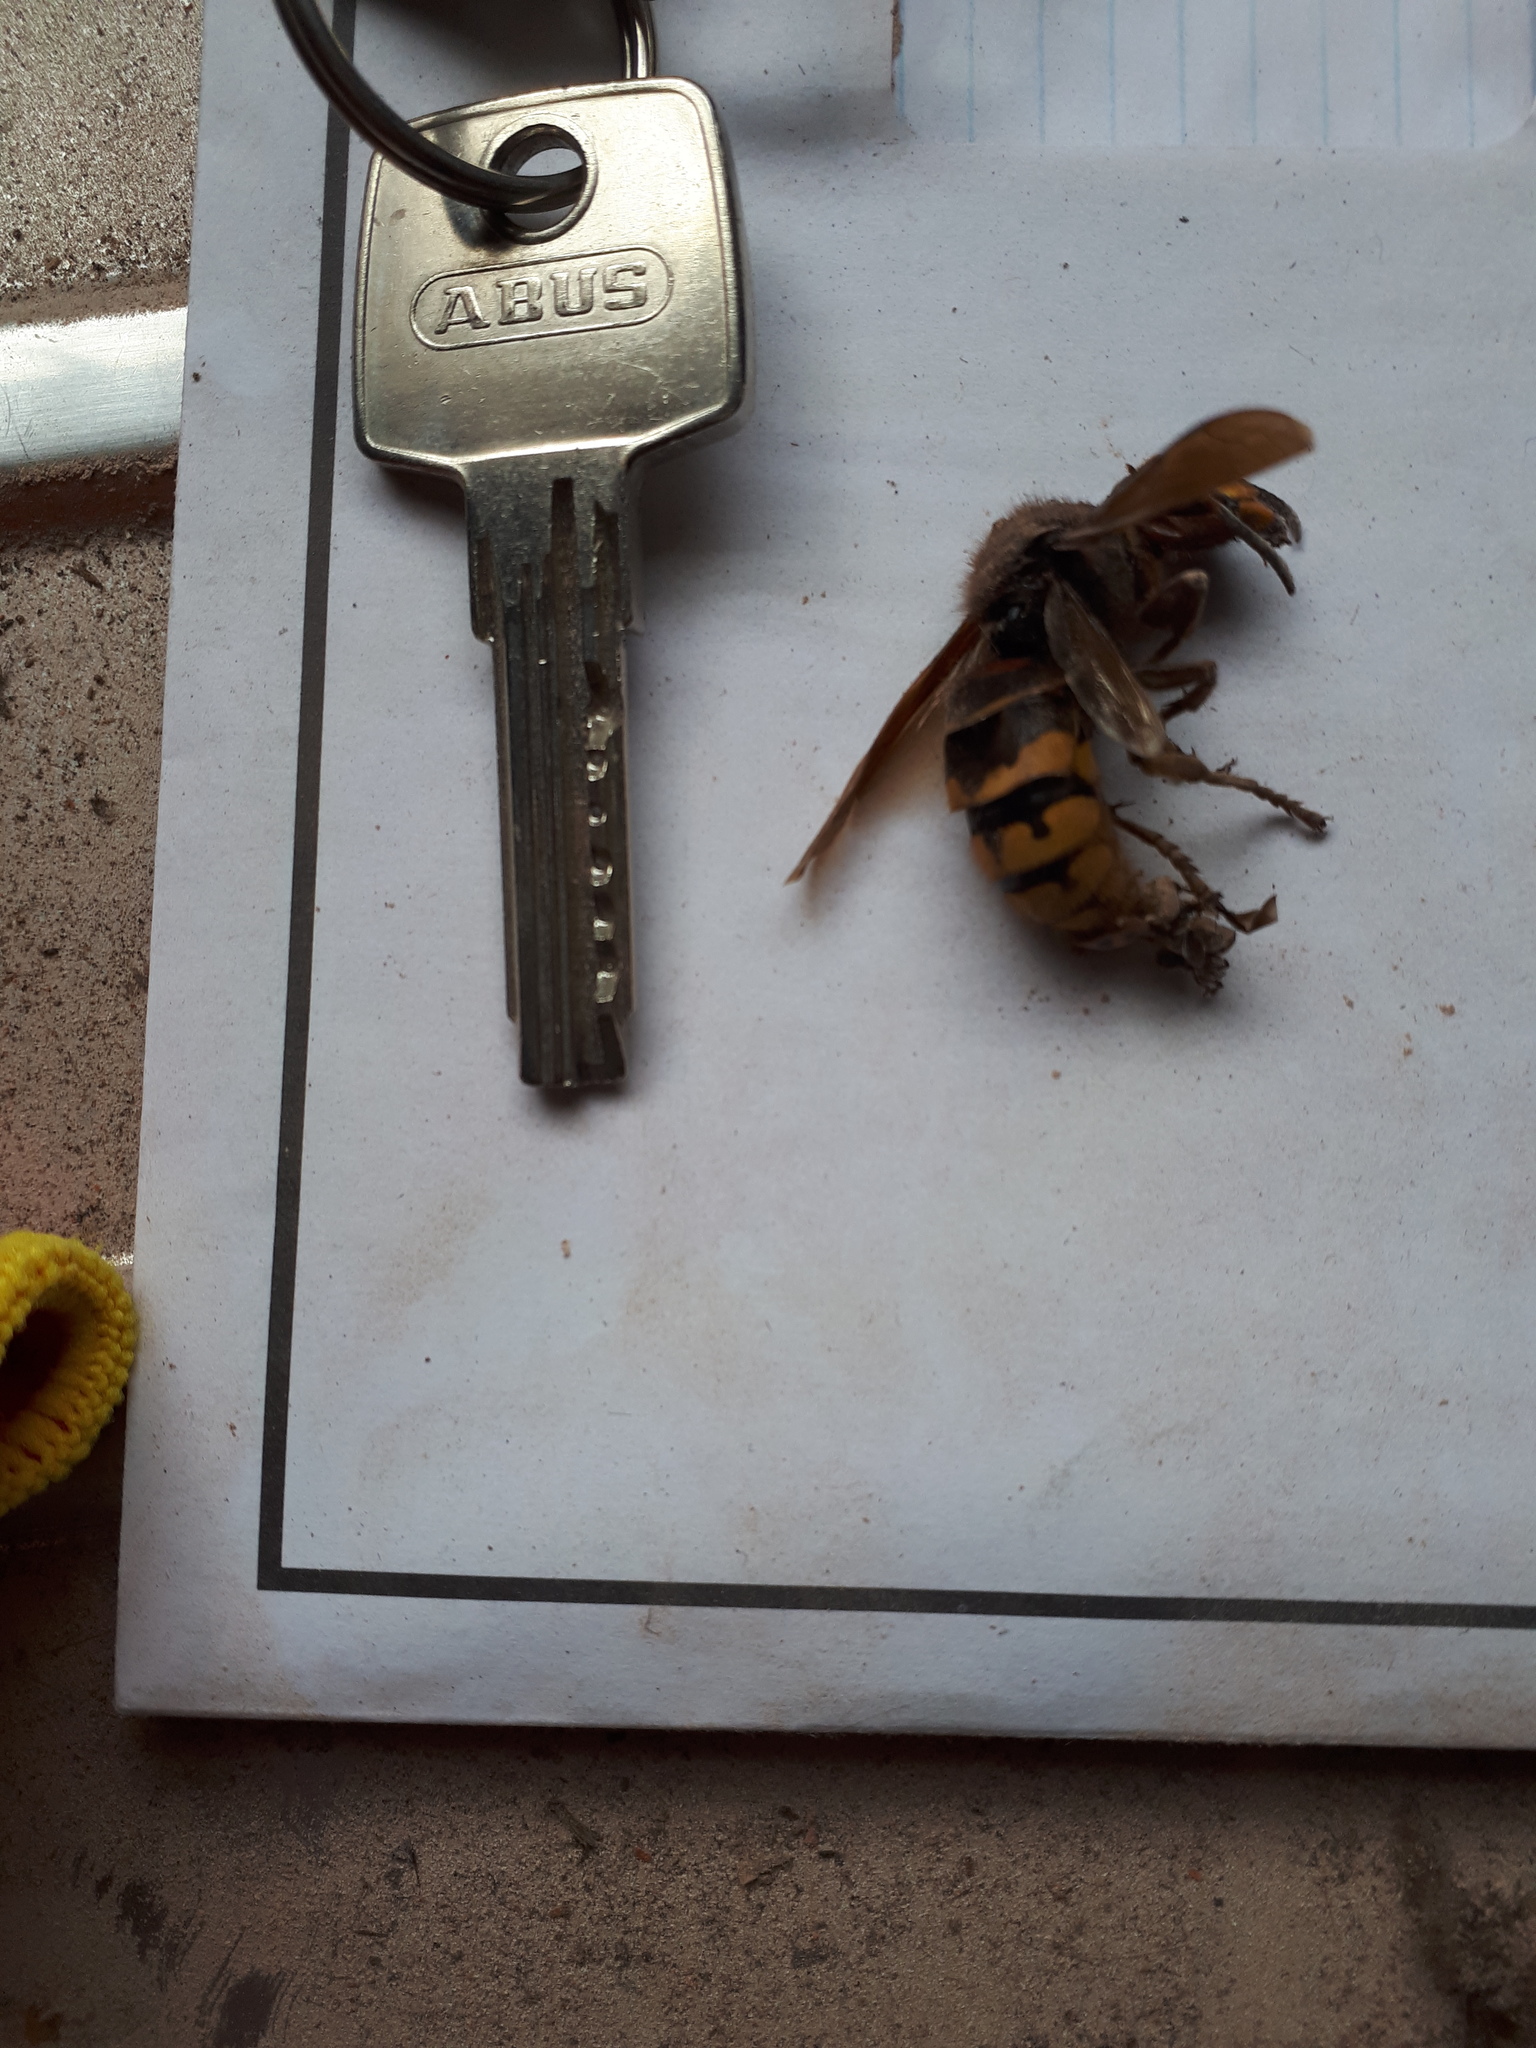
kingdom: Animalia
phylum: Arthropoda
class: Insecta
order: Hymenoptera
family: Vespidae
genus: Vespa
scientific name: Vespa crabro
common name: Hornet
